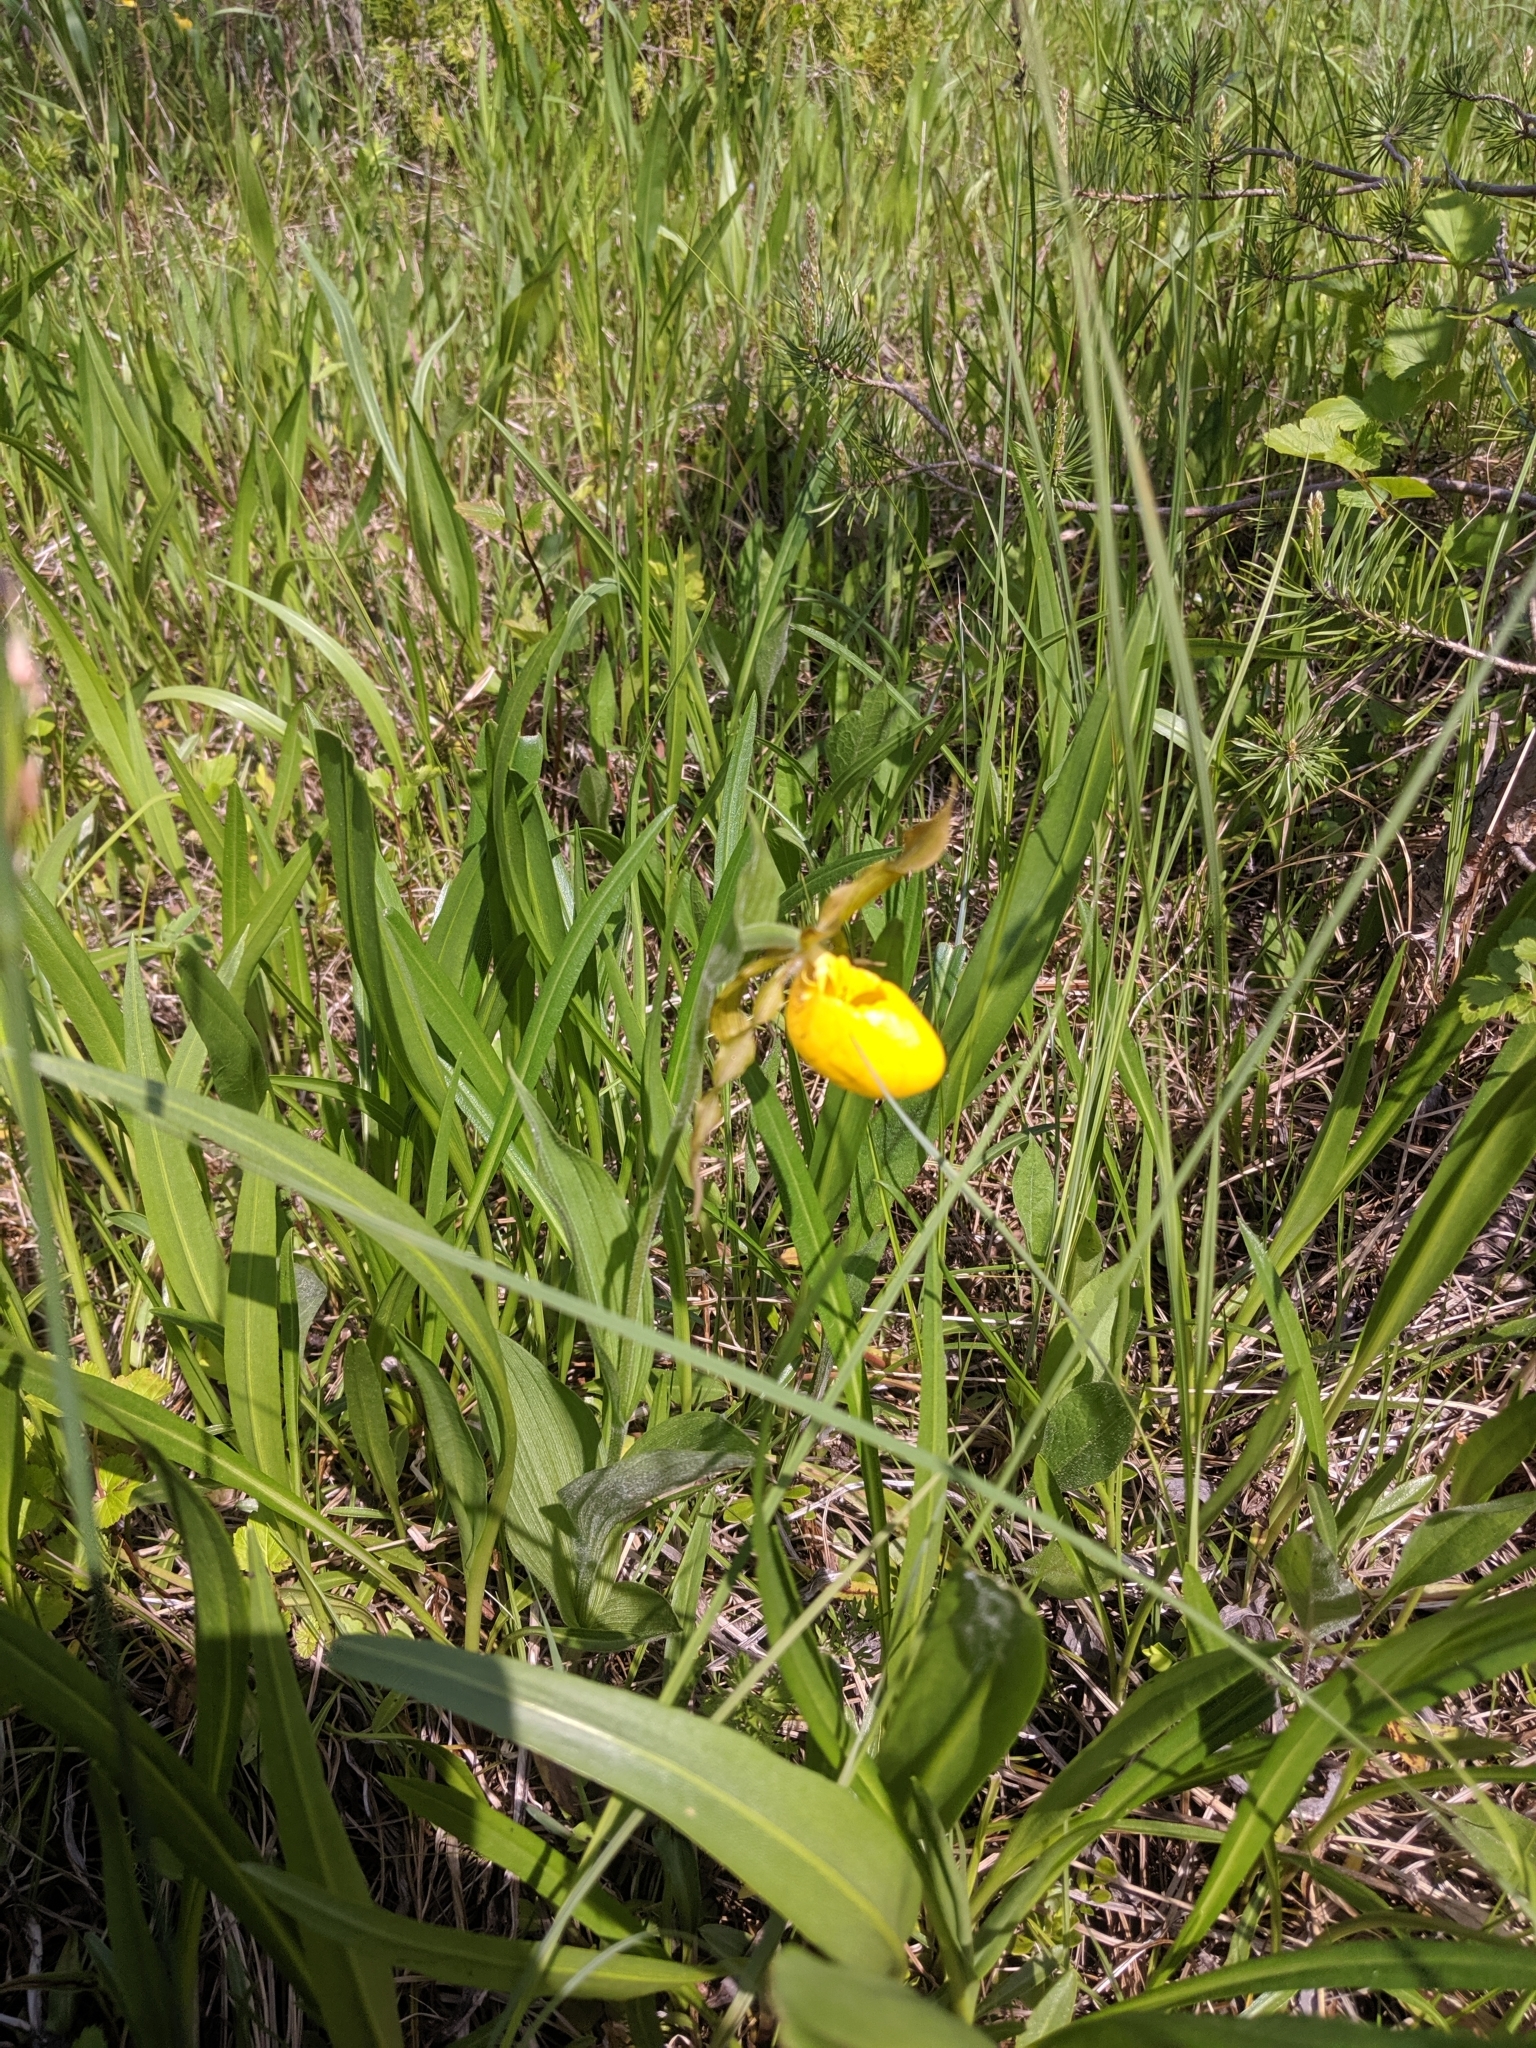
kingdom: Plantae
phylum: Tracheophyta
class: Liliopsida
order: Asparagales
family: Orchidaceae
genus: Cypripedium
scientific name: Cypripedium parviflorum
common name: American yellow lady's-slipper
